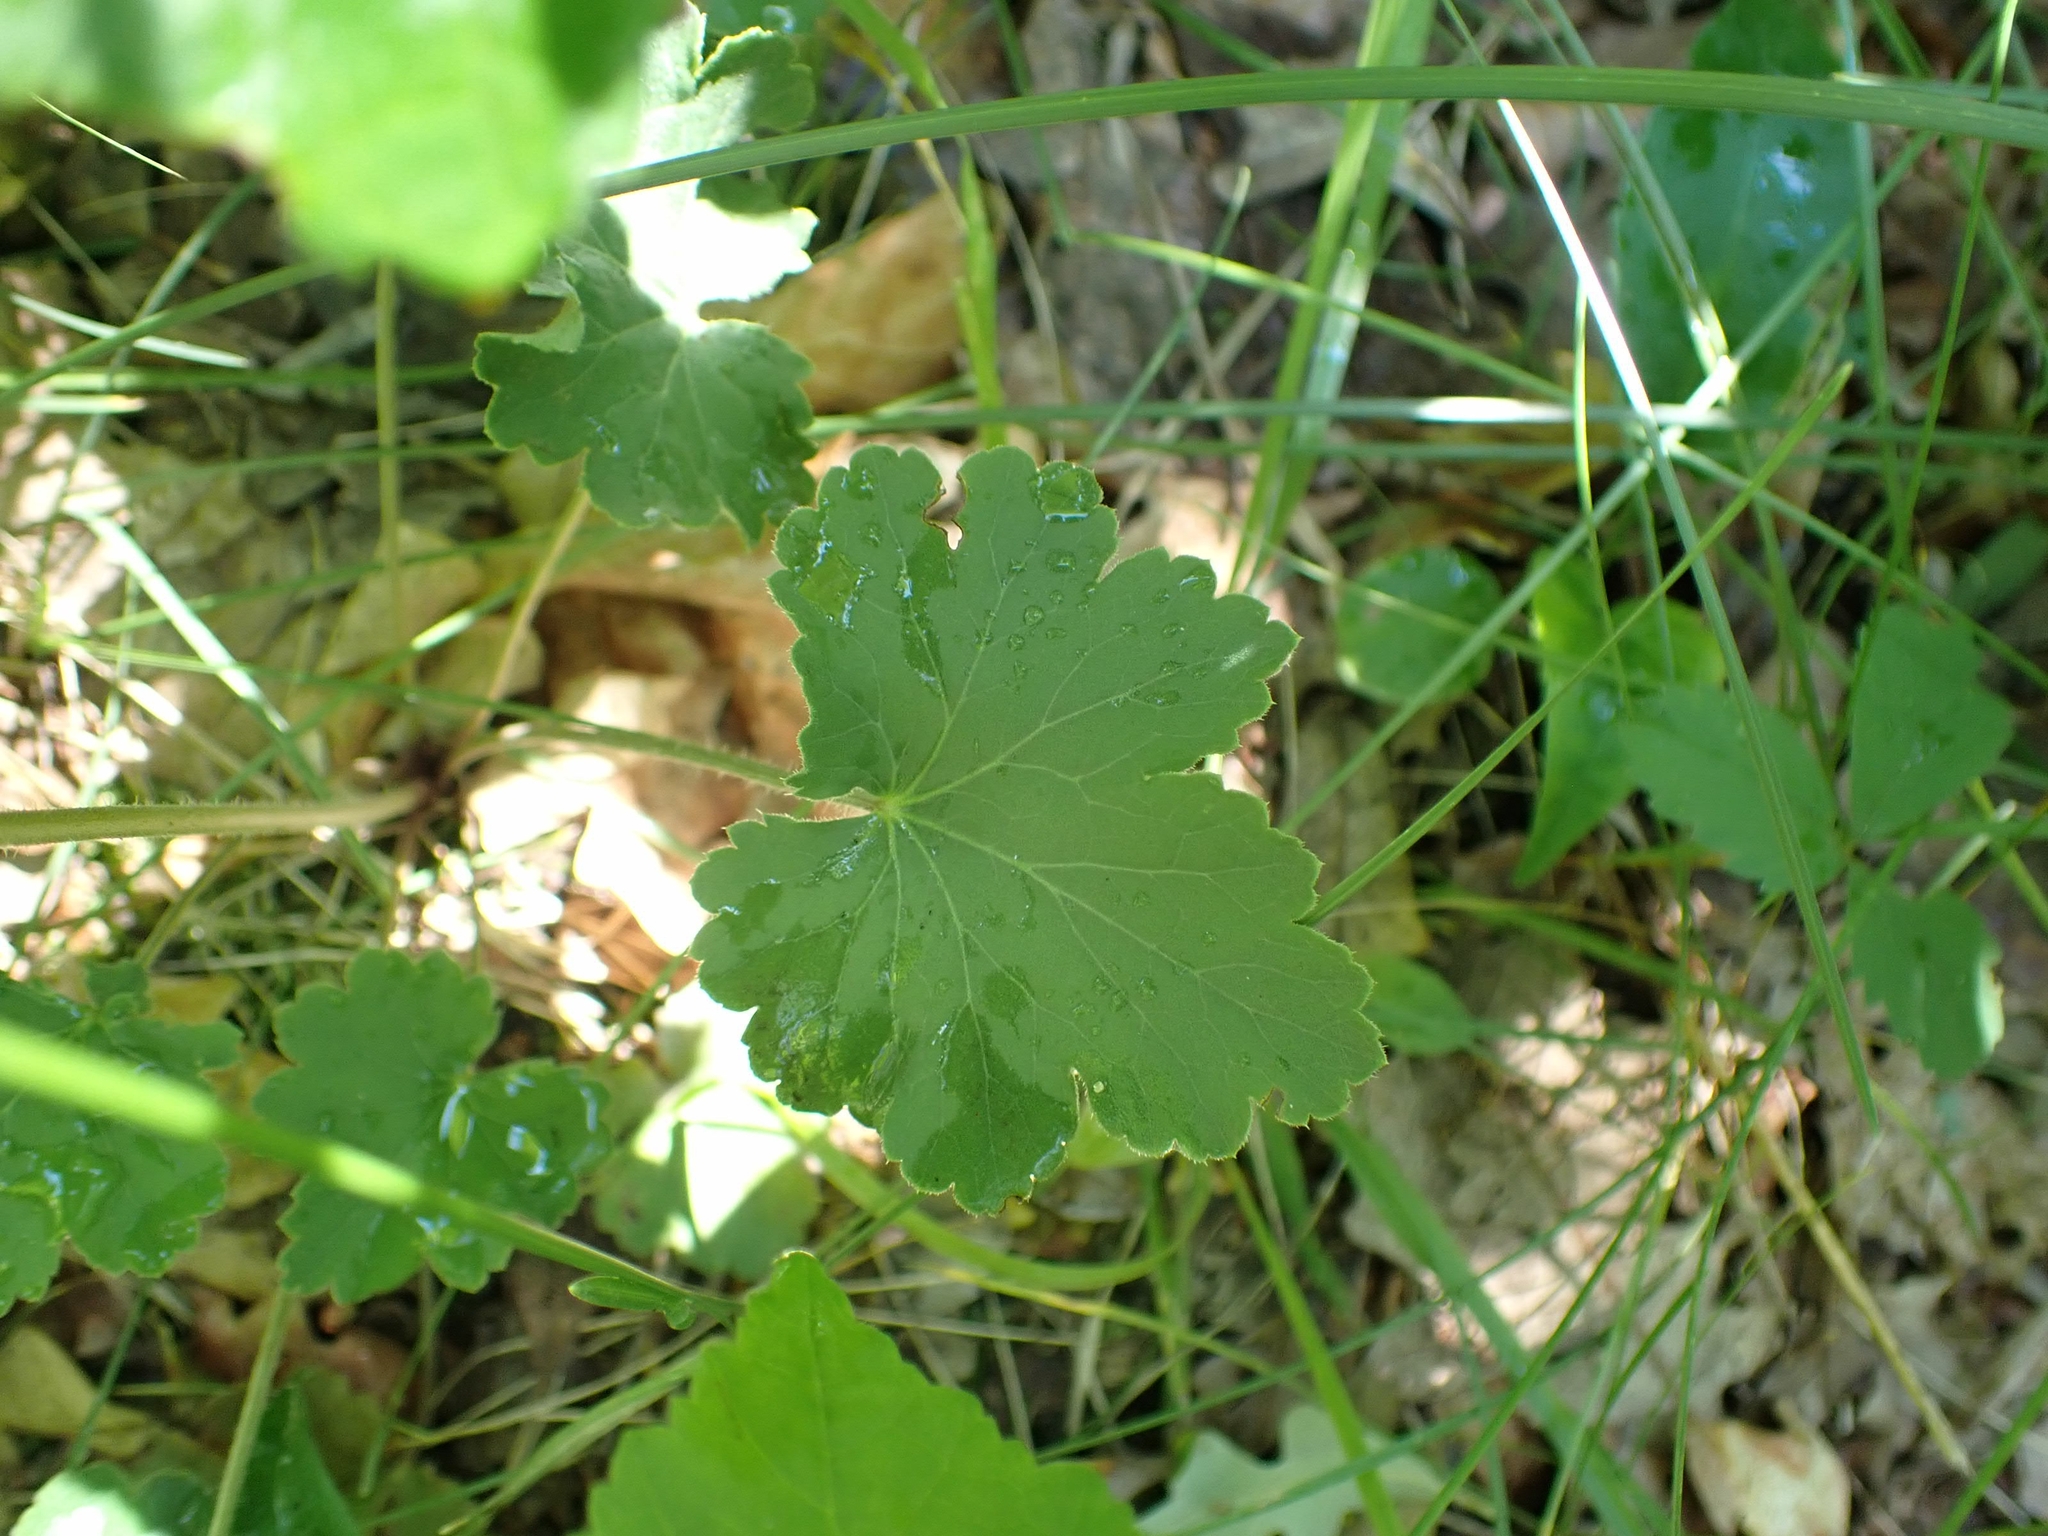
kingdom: Plantae
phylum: Tracheophyta
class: Magnoliopsida
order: Saxifragales
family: Saxifragaceae
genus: Heuchera
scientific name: Heuchera richardsonii
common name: Richardson's alumroot
